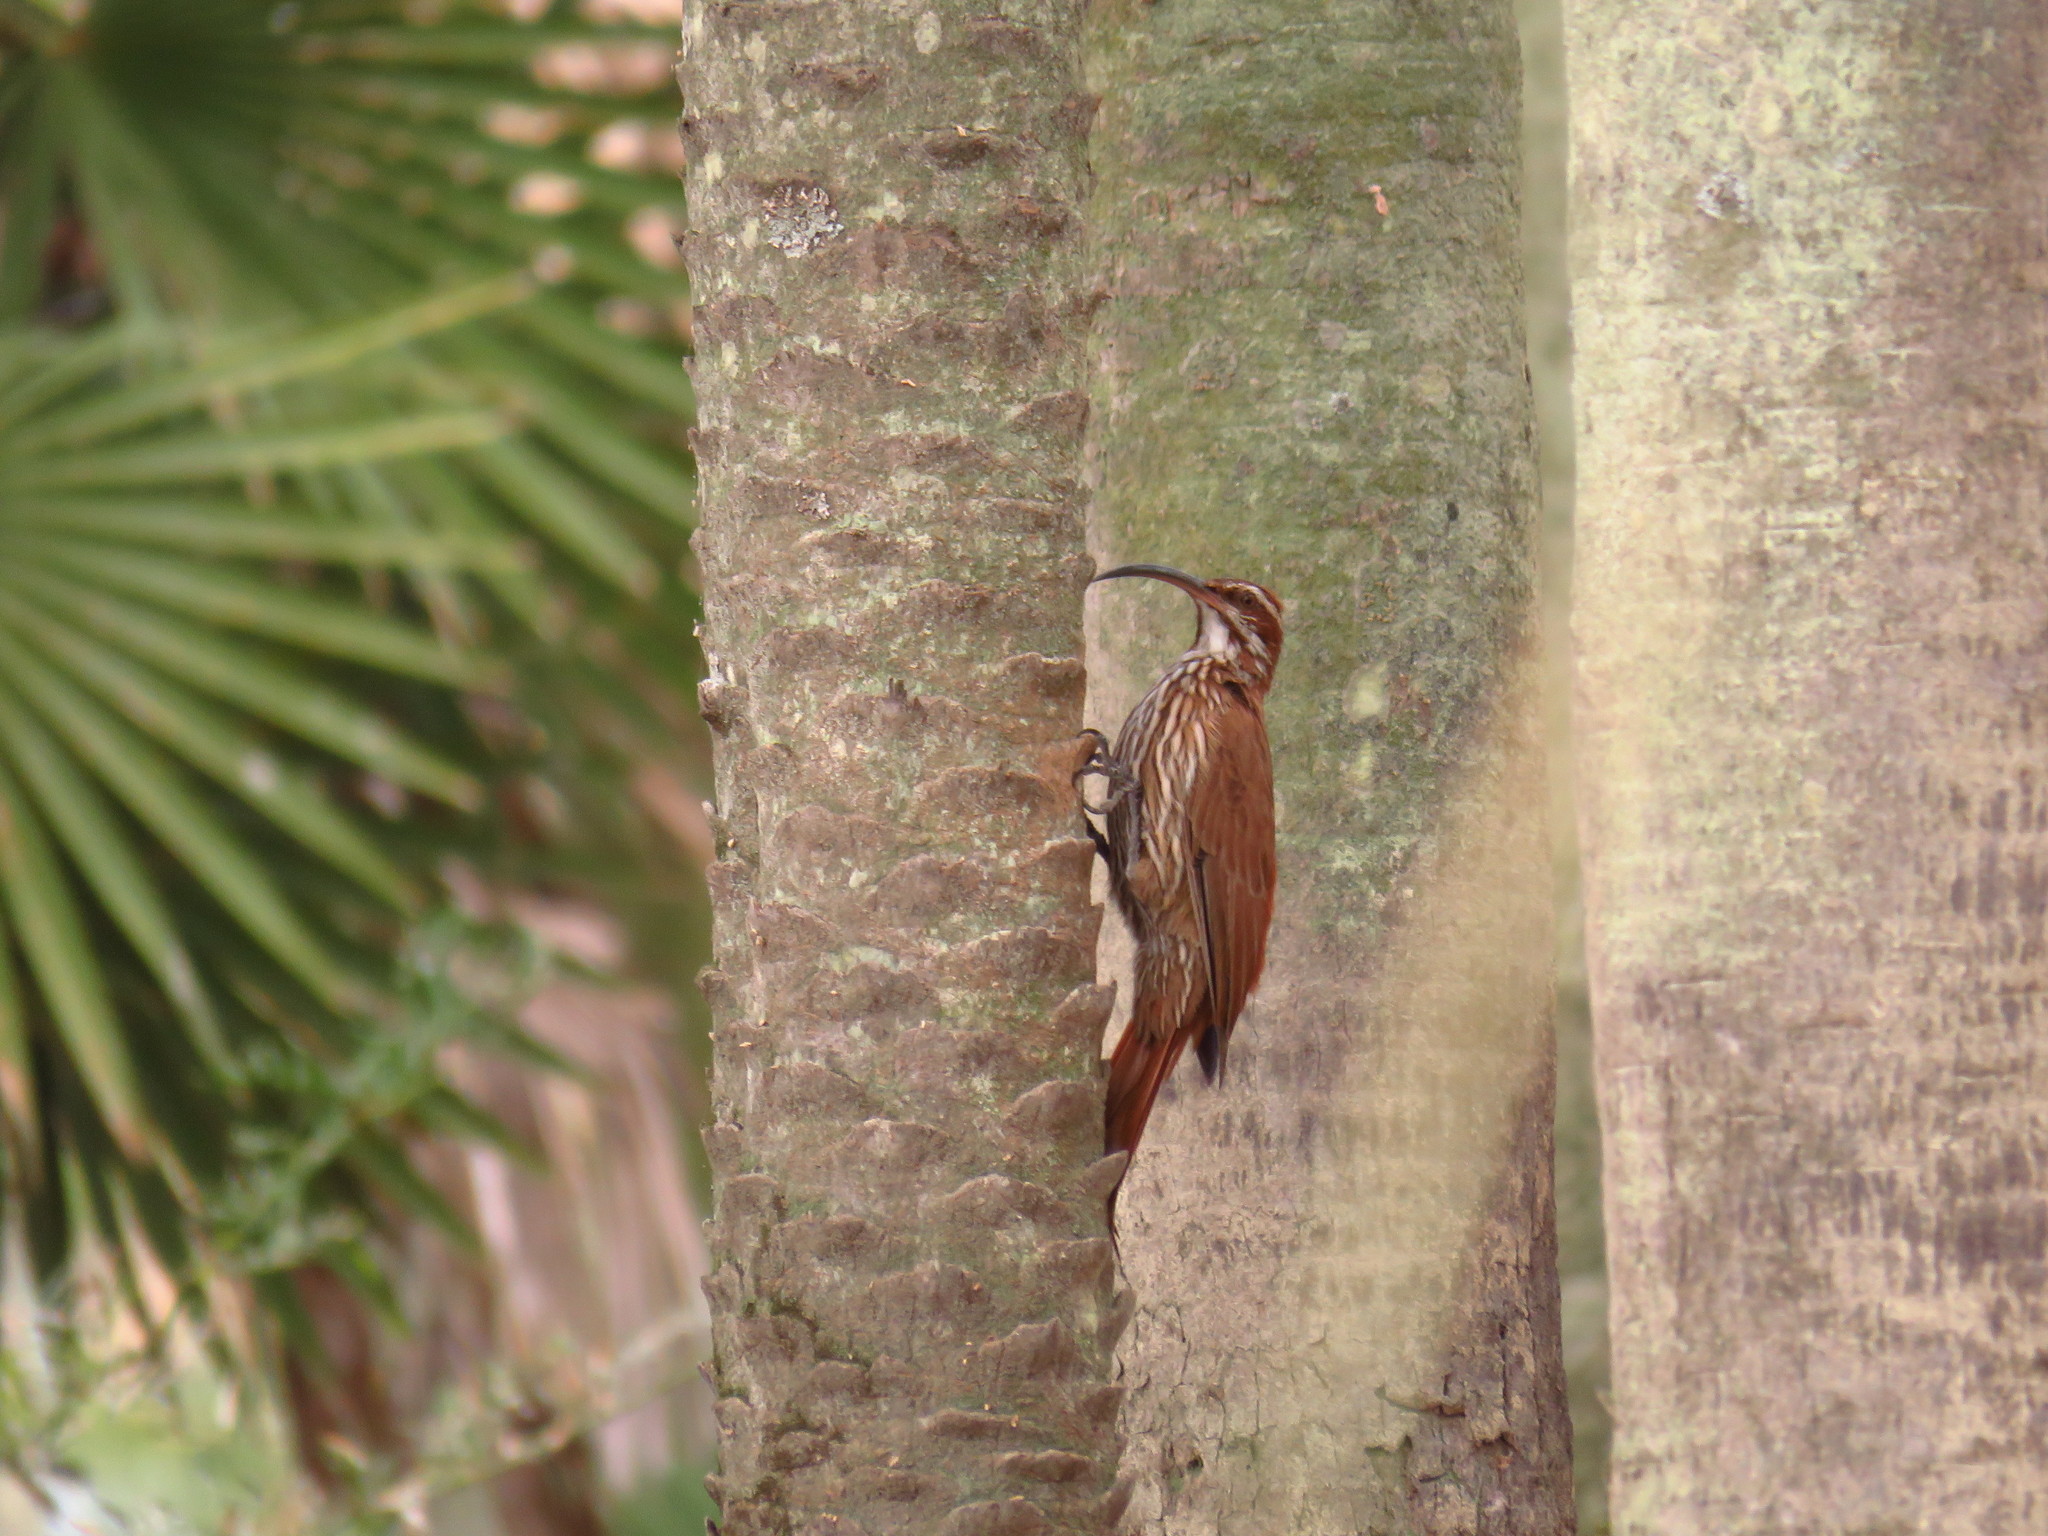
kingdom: Animalia
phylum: Chordata
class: Aves
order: Passeriformes
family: Furnariidae
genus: Drymornis
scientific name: Drymornis bridgesii
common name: Scimitar-billed woodcreeper
